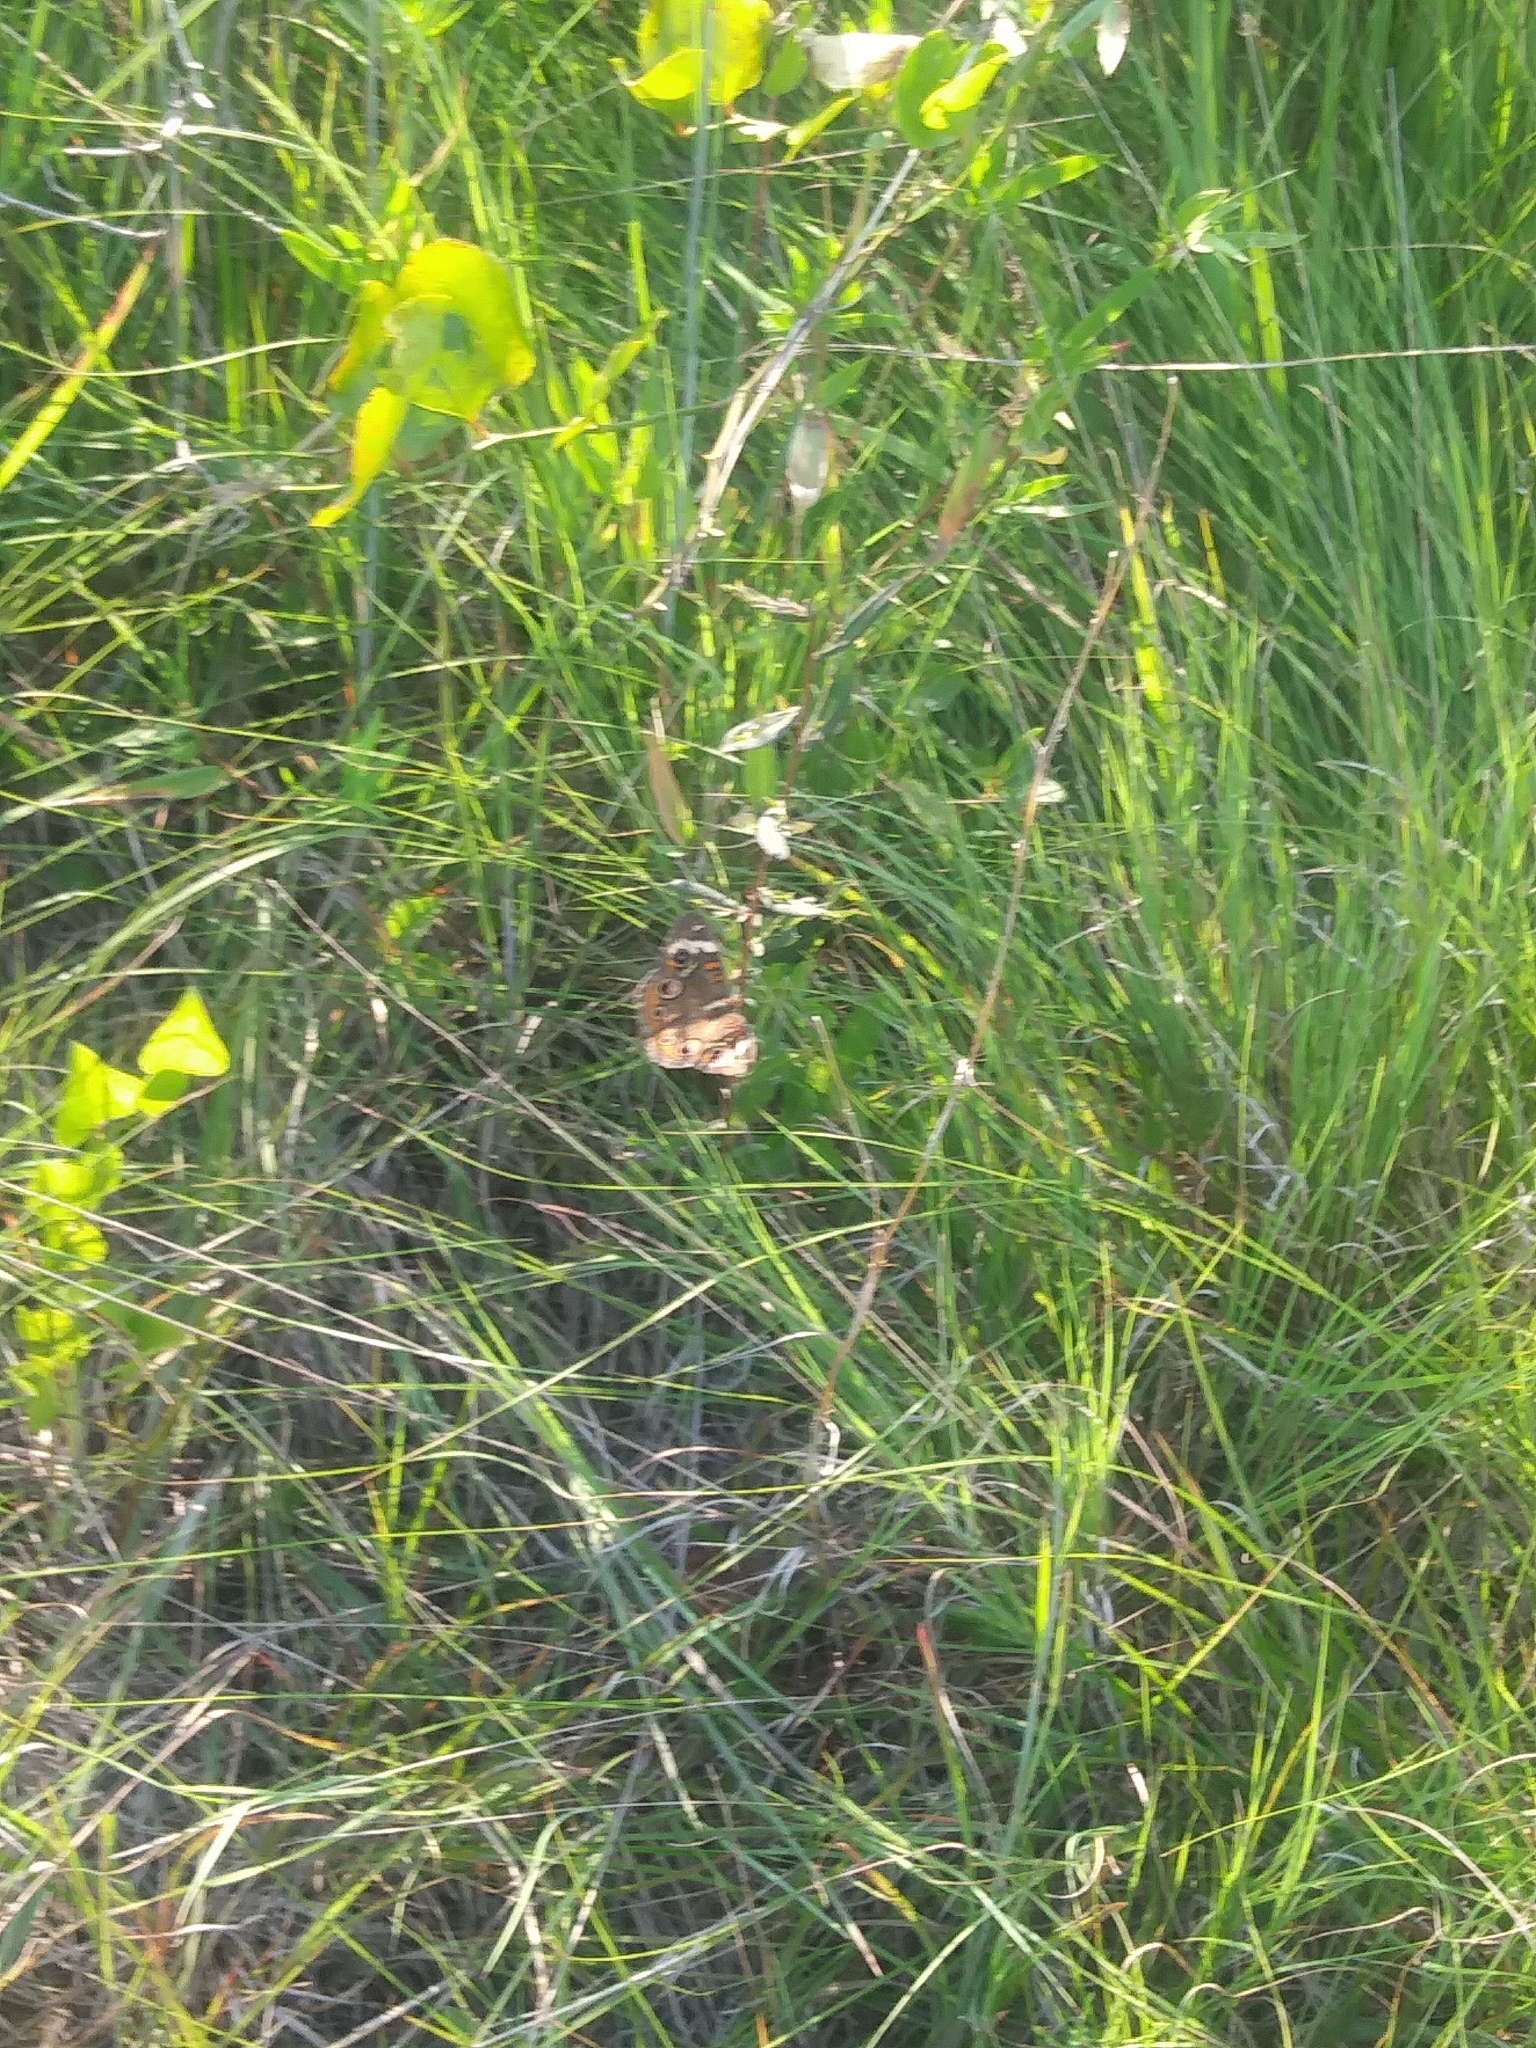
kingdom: Animalia
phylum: Arthropoda
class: Insecta
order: Lepidoptera
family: Nymphalidae
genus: Junonia
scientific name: Junonia coenia
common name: Common buckeye
